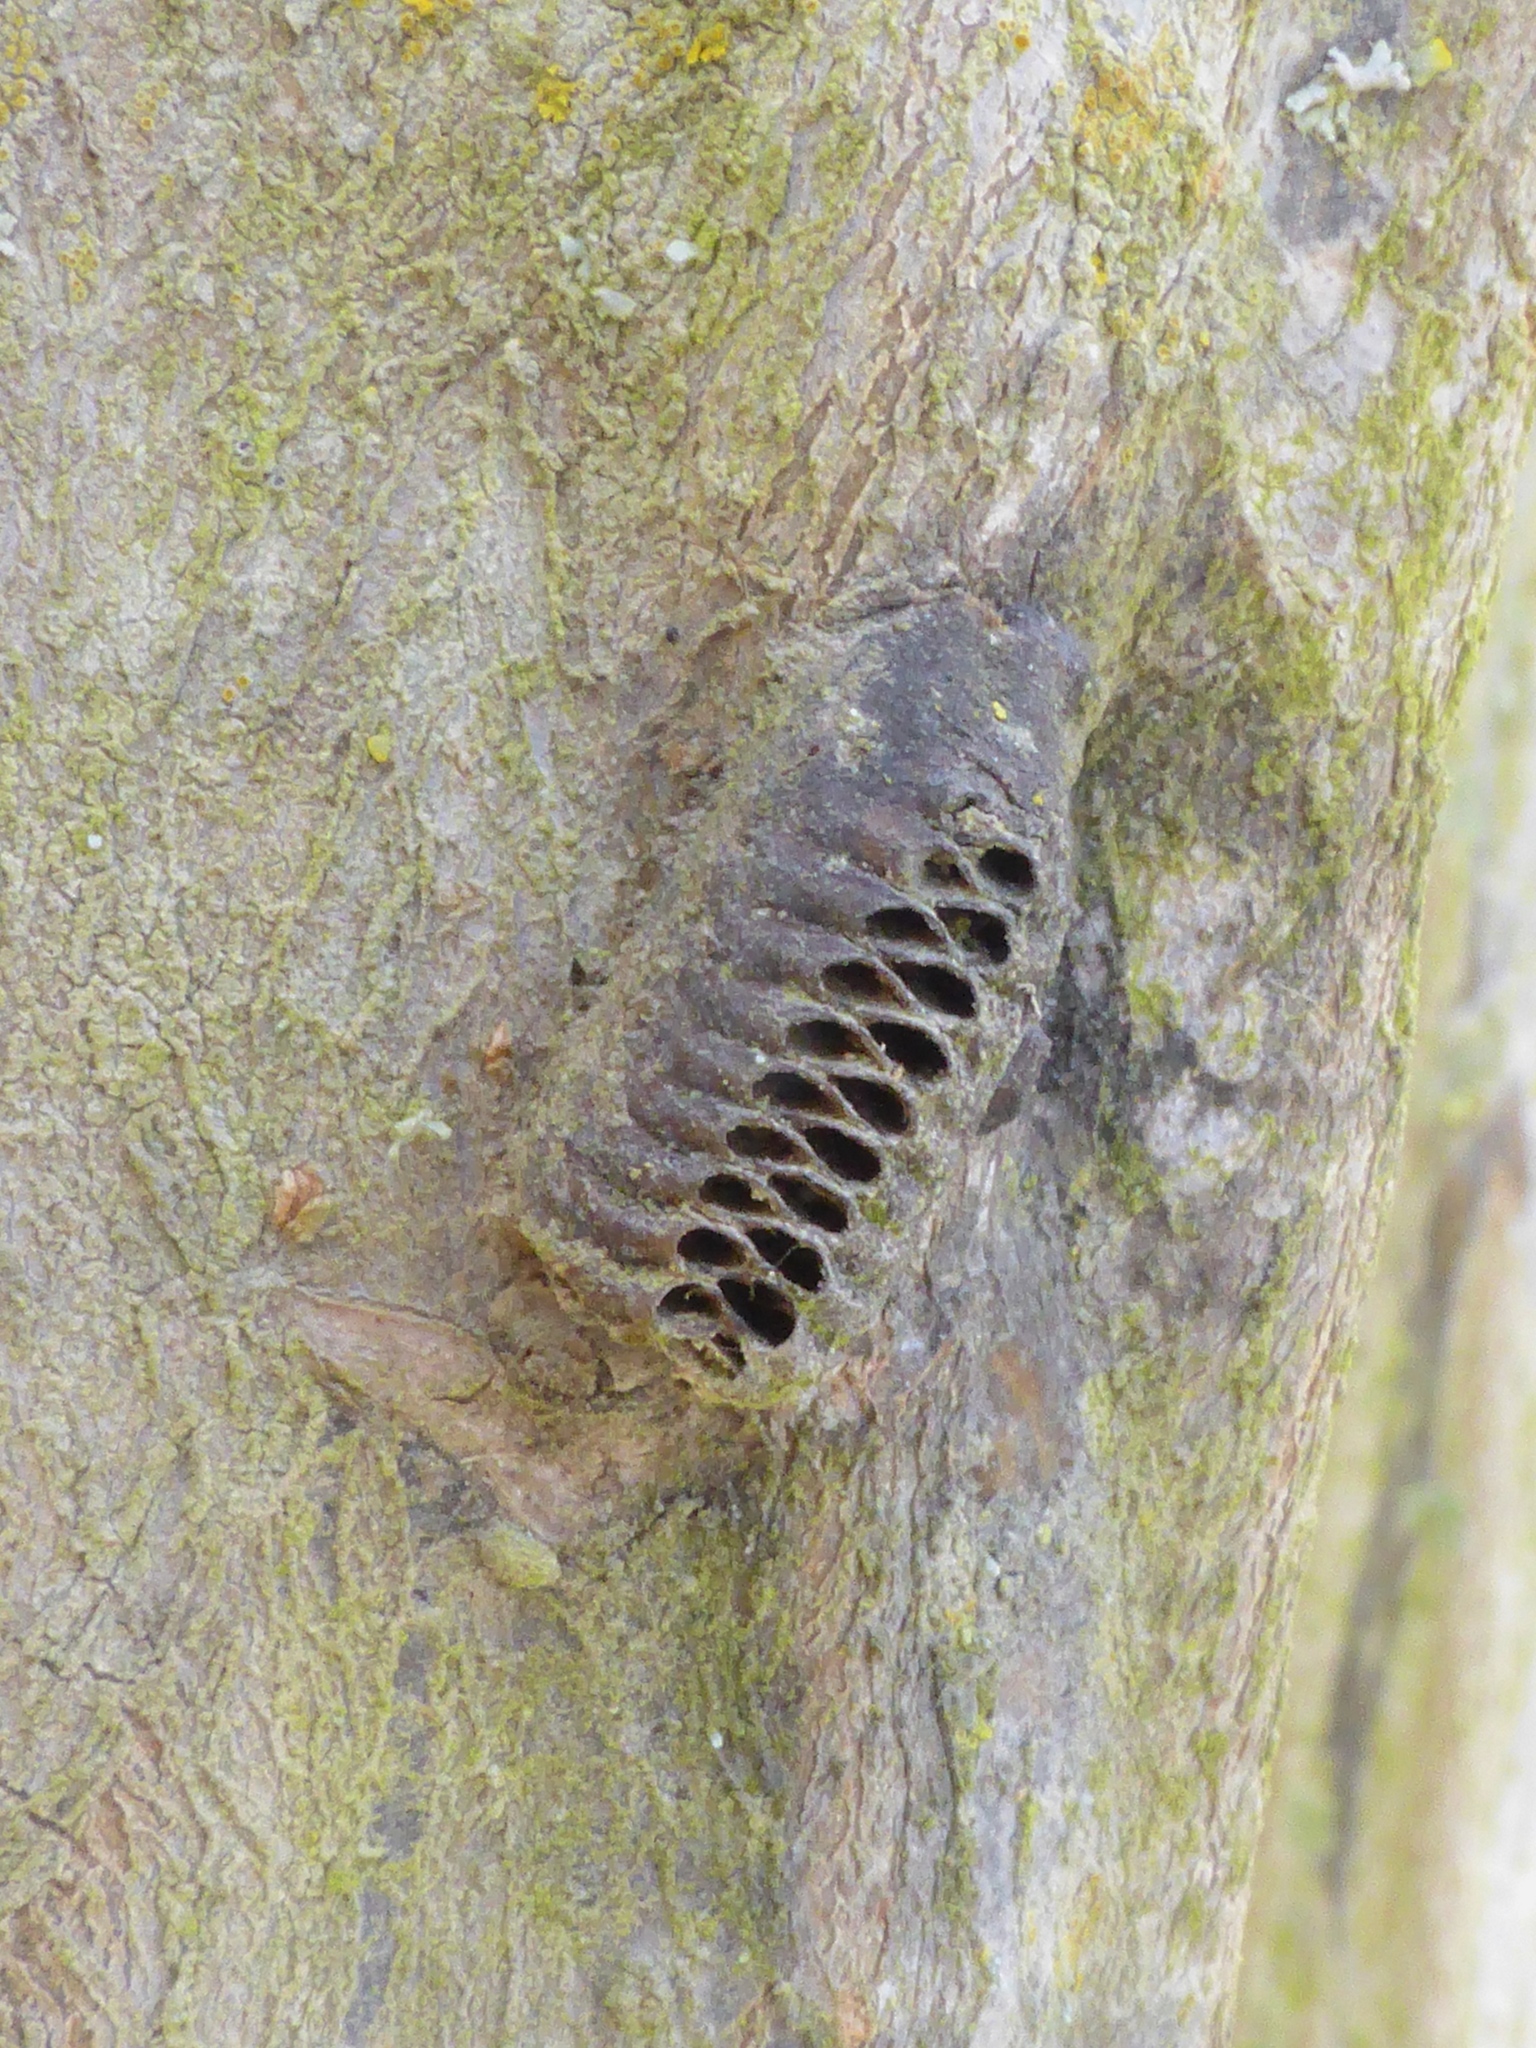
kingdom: Animalia
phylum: Arthropoda
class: Insecta
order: Mantodea
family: Mantidae
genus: Orthodera
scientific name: Orthodera novaezealandiae
